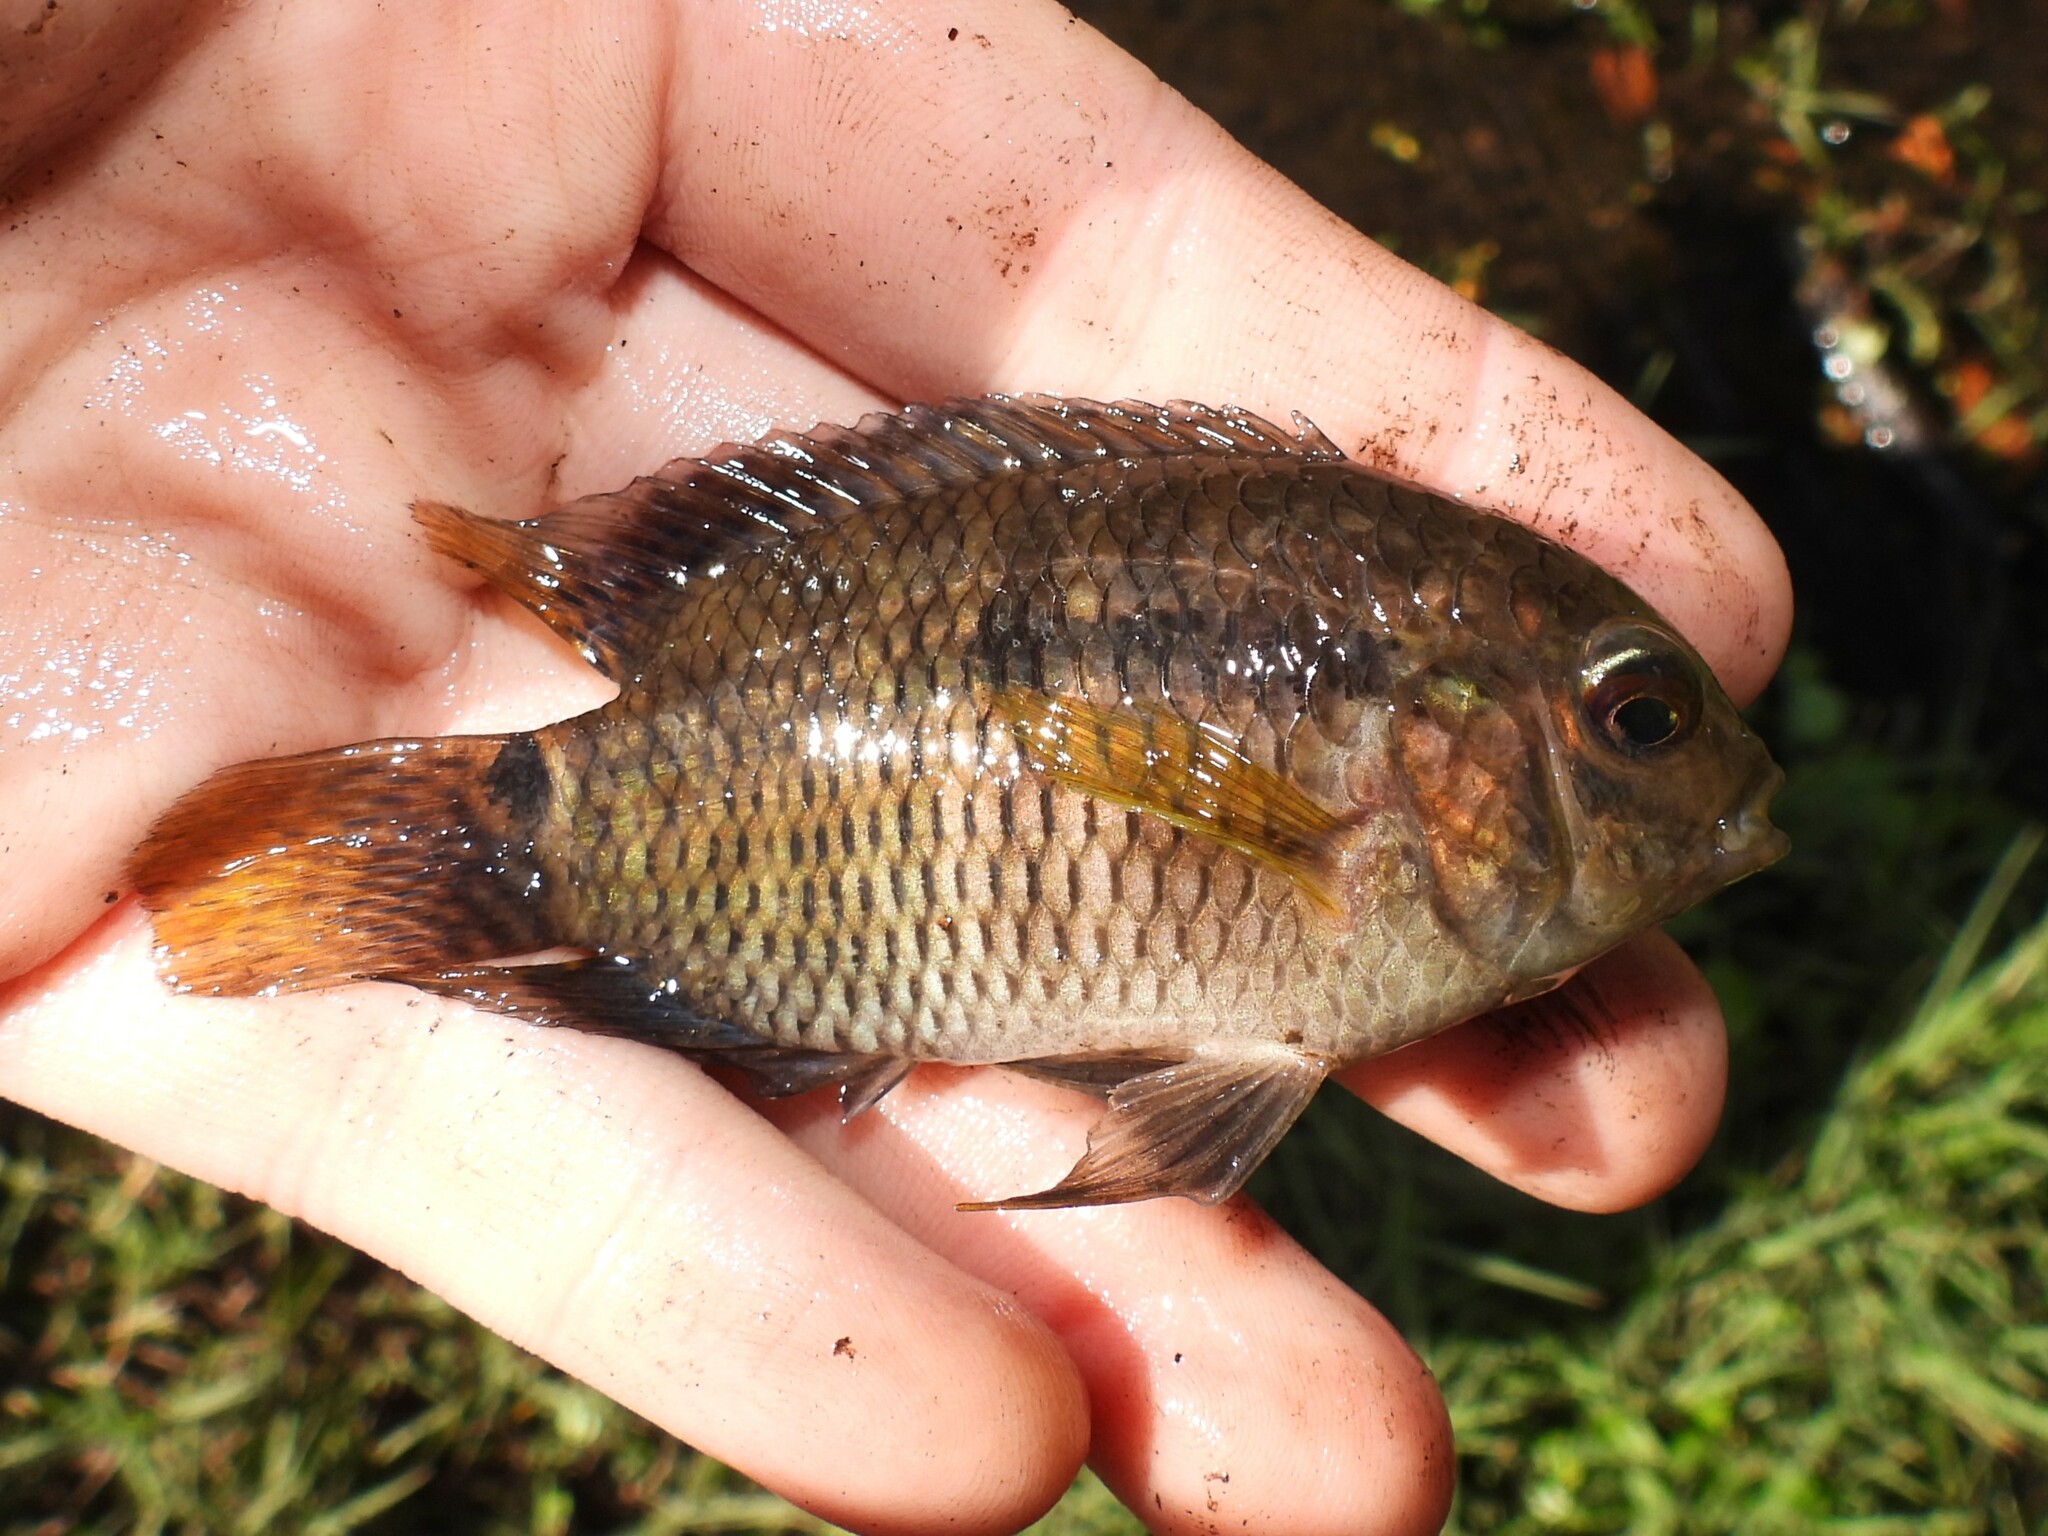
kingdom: Animalia
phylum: Chordata
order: Perciformes
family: Cichlidae
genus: Cichlasoma
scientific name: Cichlasoma dimerus
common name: Chanchita
